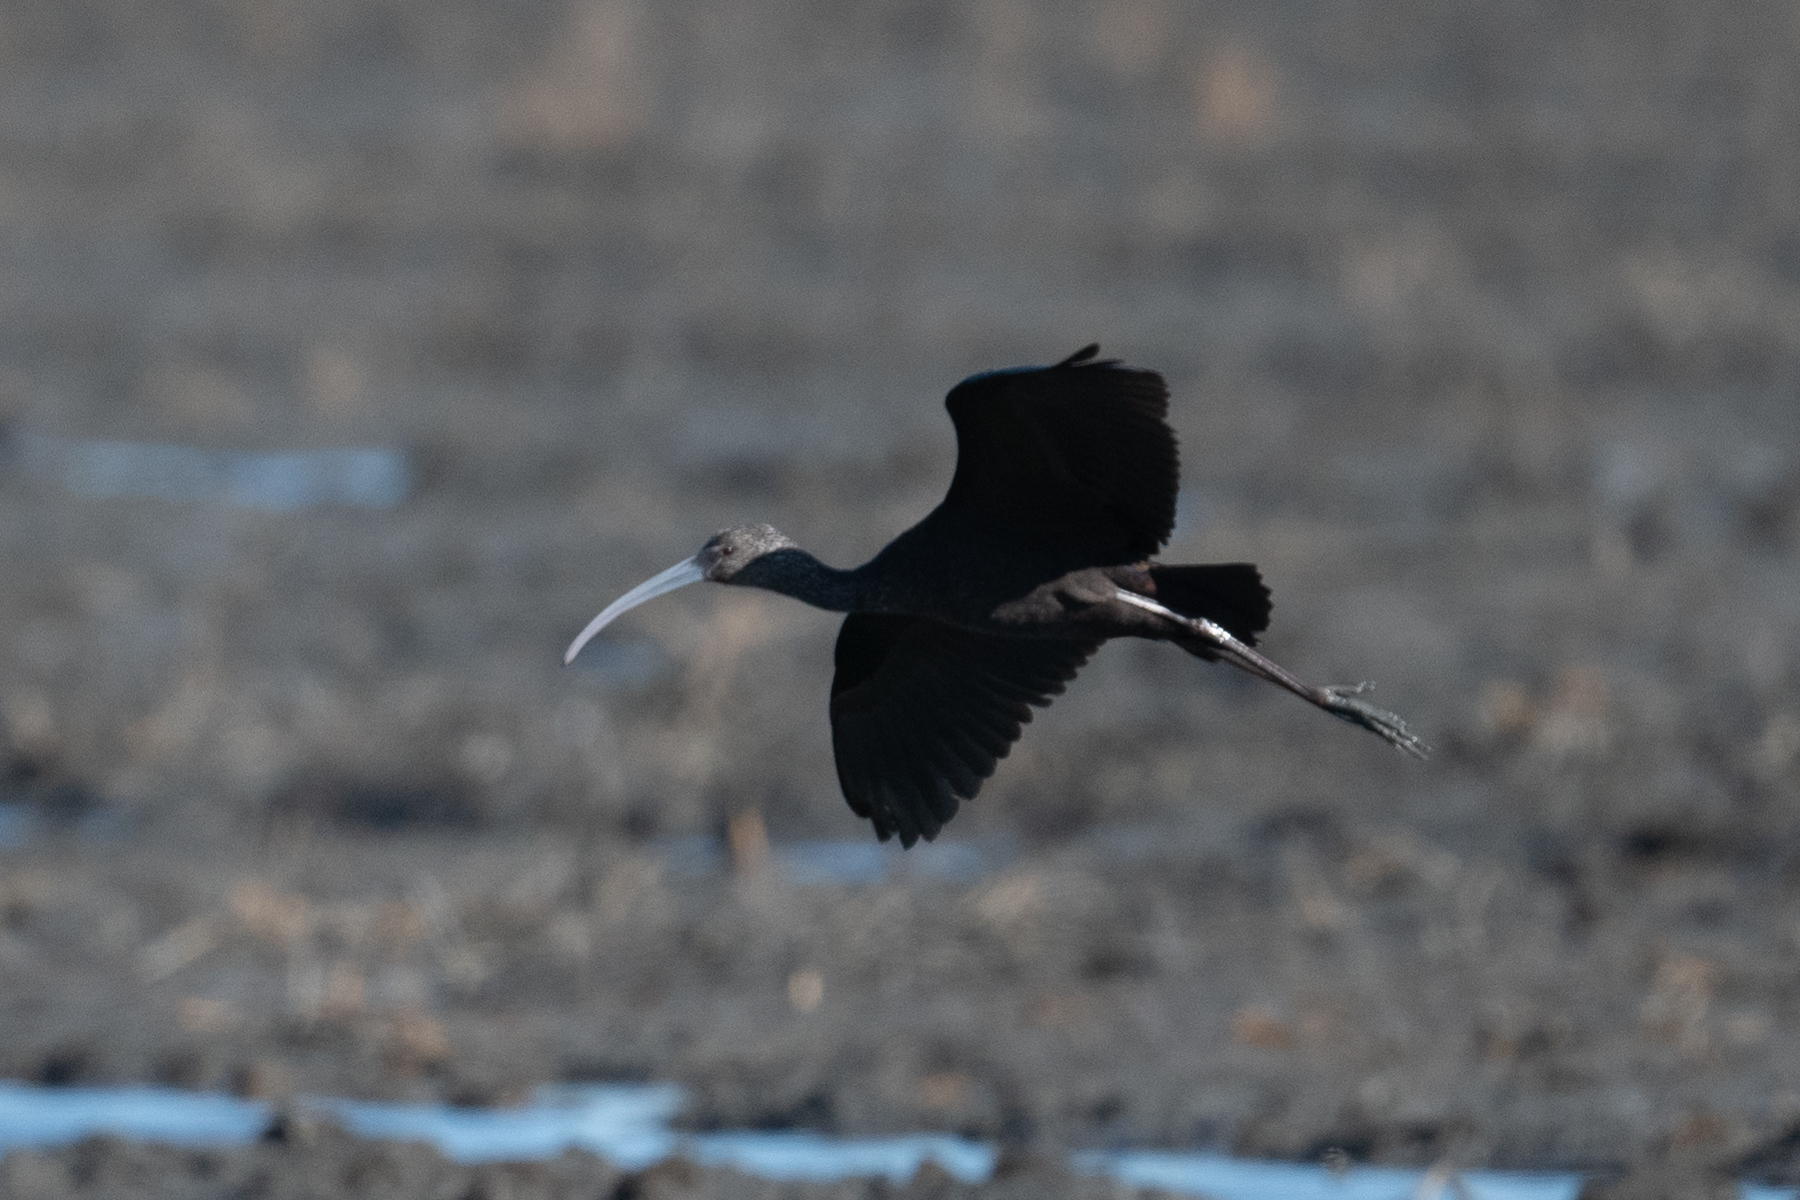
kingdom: Animalia
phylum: Chordata
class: Aves
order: Pelecaniformes
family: Threskiornithidae
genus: Plegadis
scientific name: Plegadis chihi
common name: White-faced ibis
